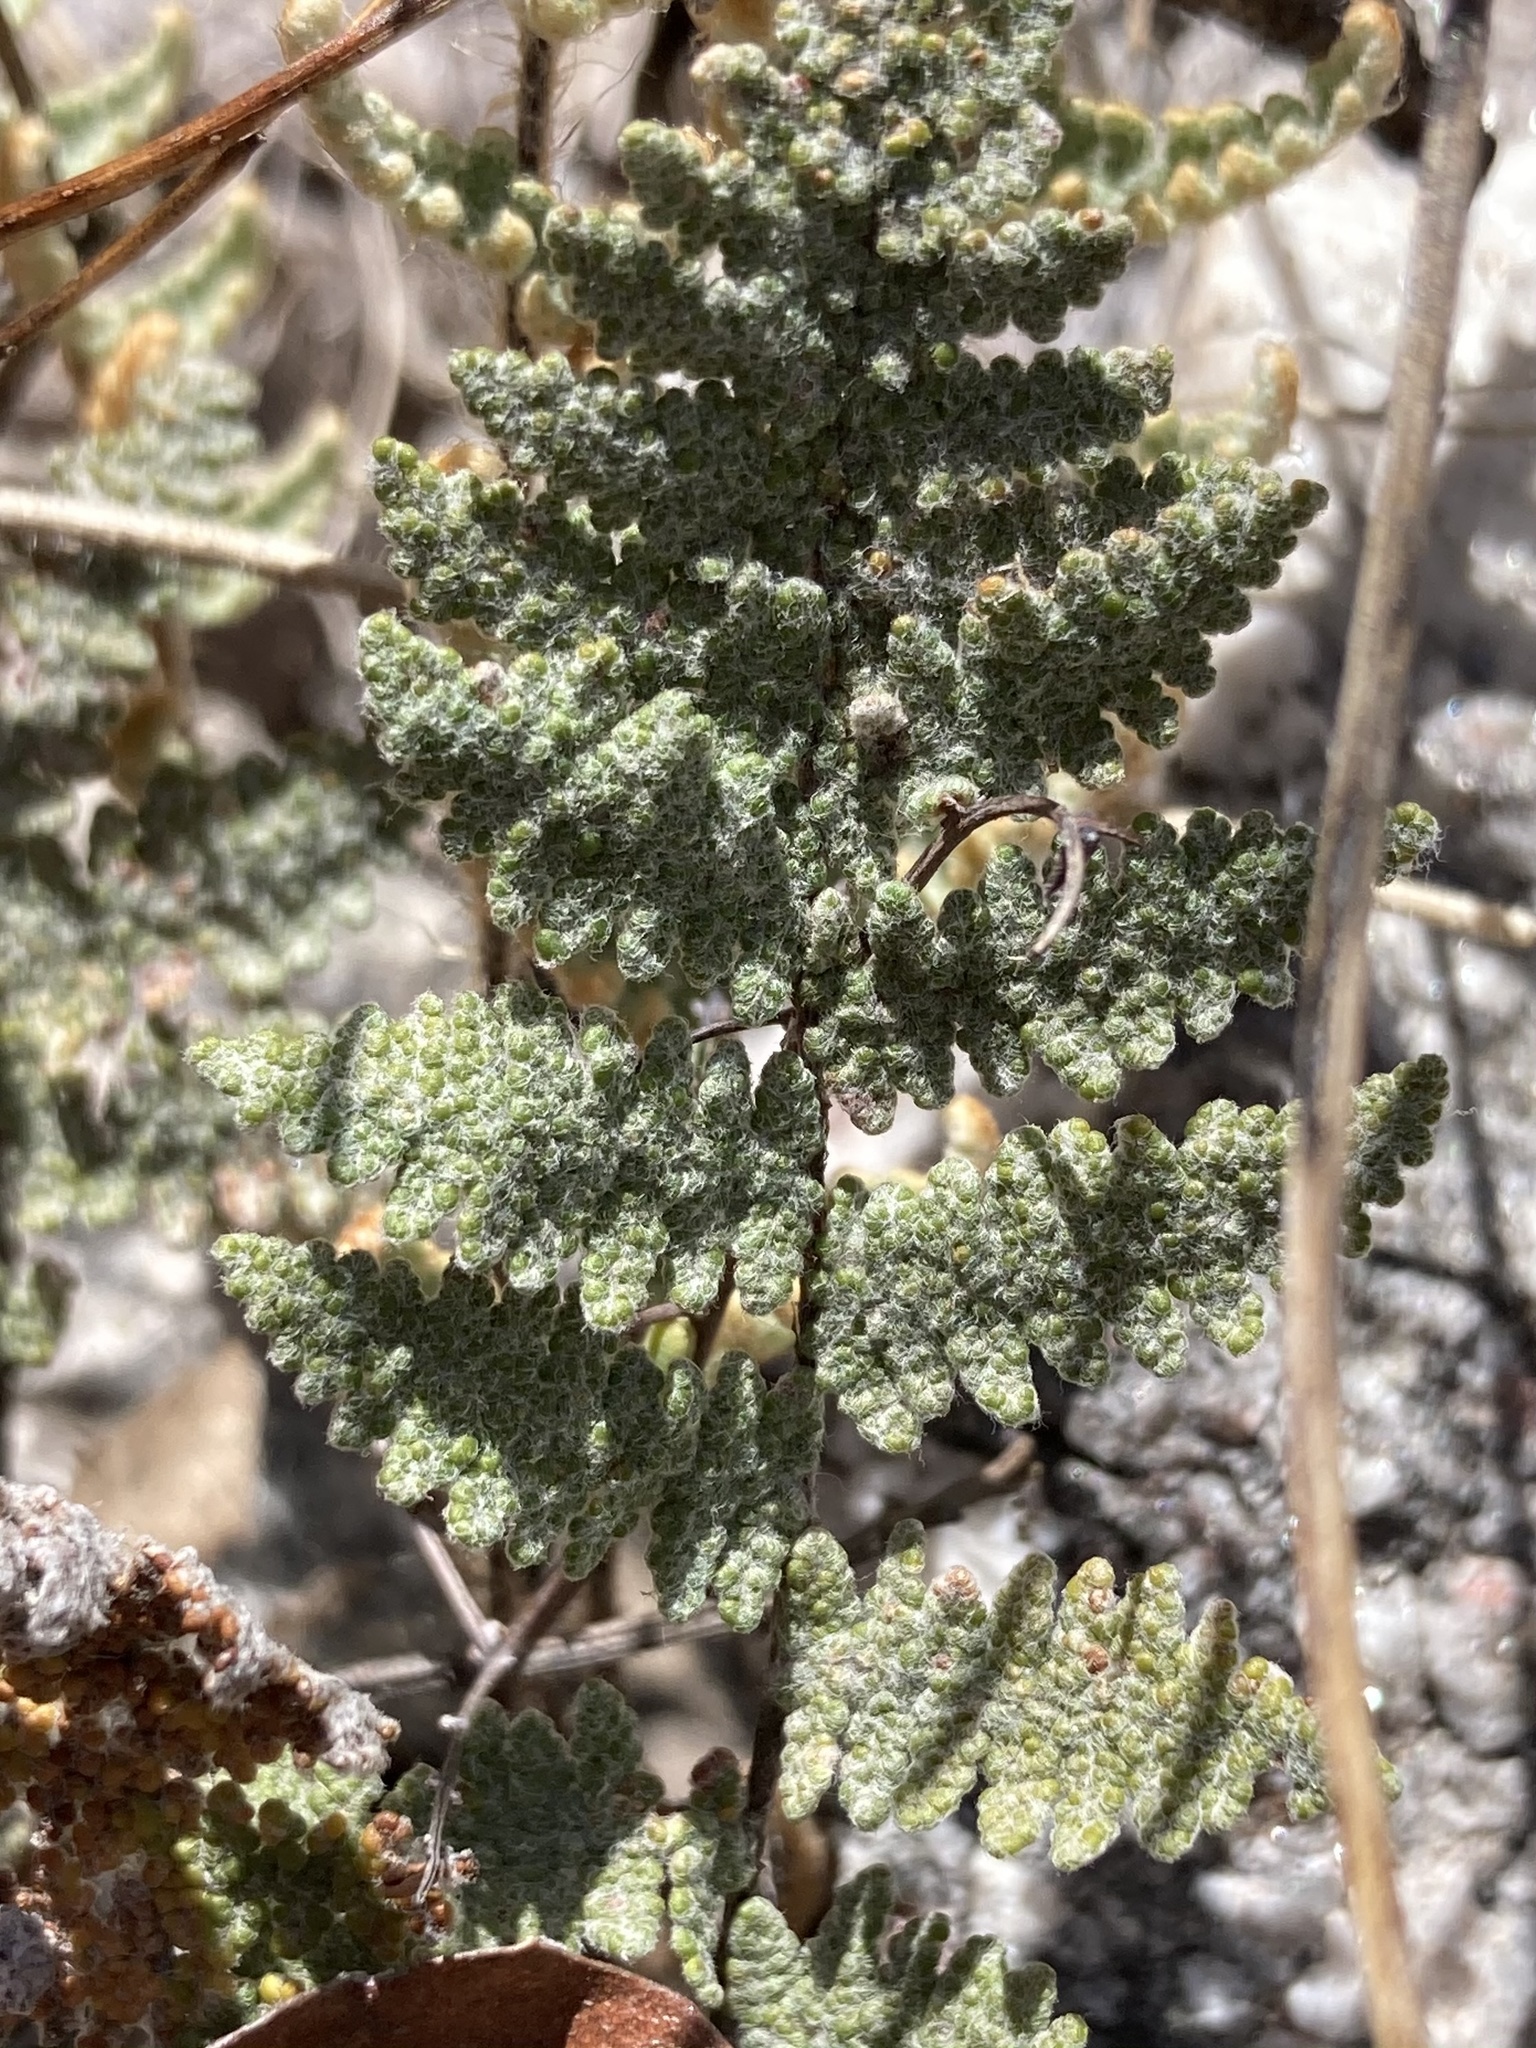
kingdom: Plantae
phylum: Tracheophyta
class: Polypodiopsida
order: Polypodiales
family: Pteridaceae
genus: Myriopteris
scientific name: Myriopteris lindheimeri
